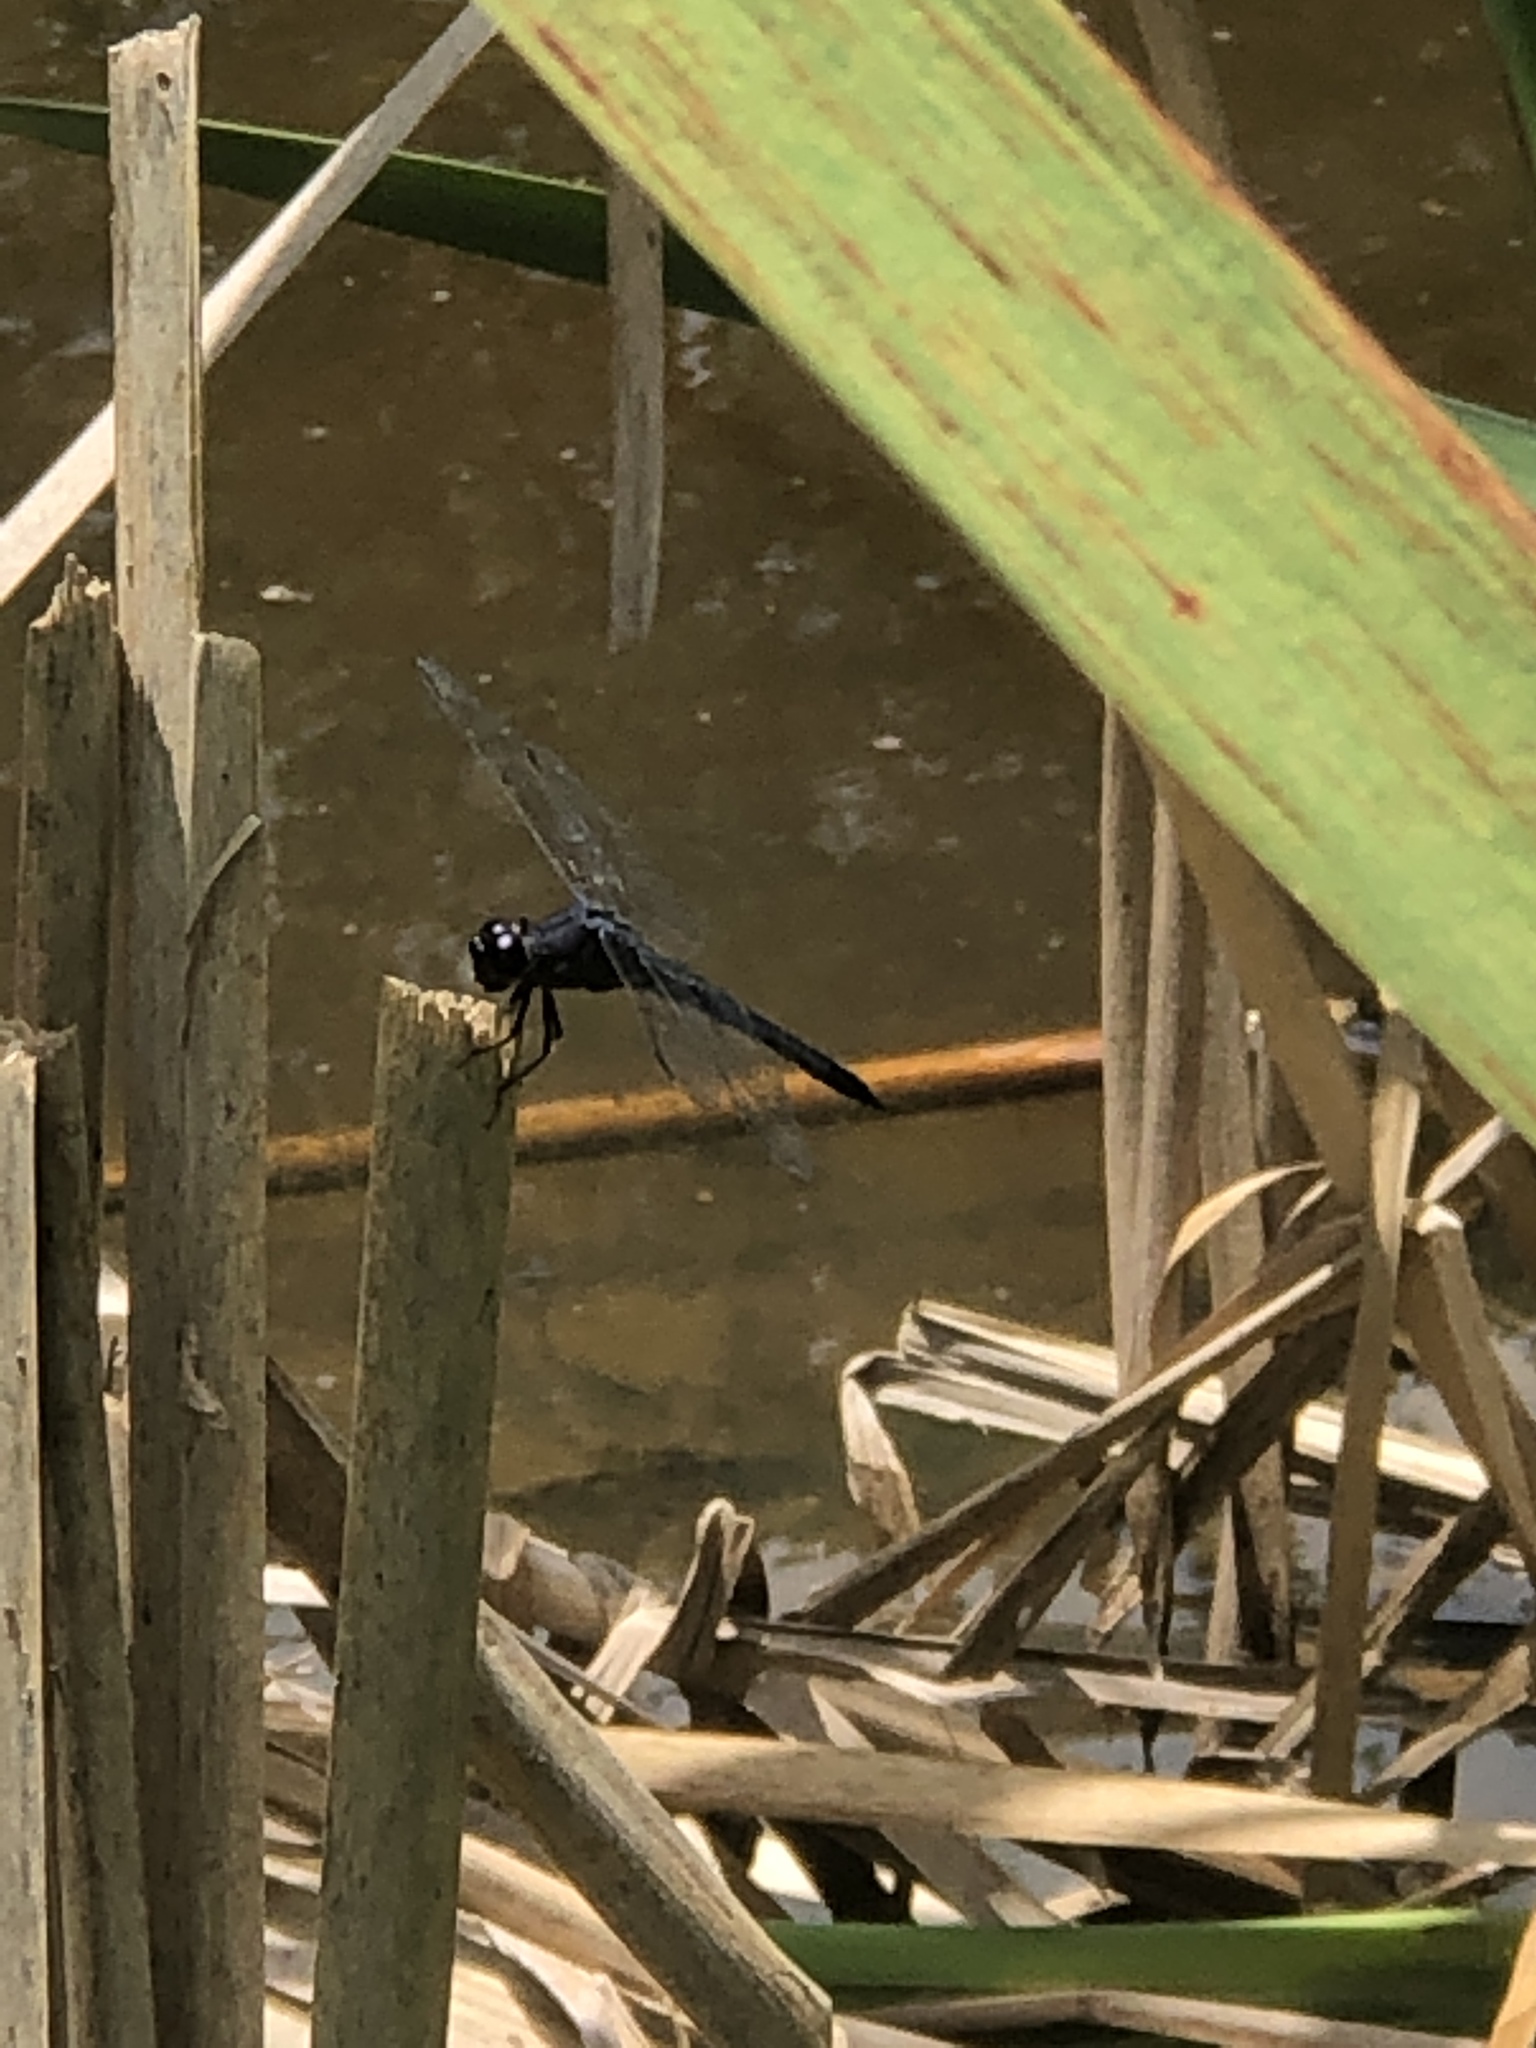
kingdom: Animalia
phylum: Arthropoda
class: Insecta
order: Odonata
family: Libellulidae
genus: Libellula
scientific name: Libellula incesta
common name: Slaty skimmer
